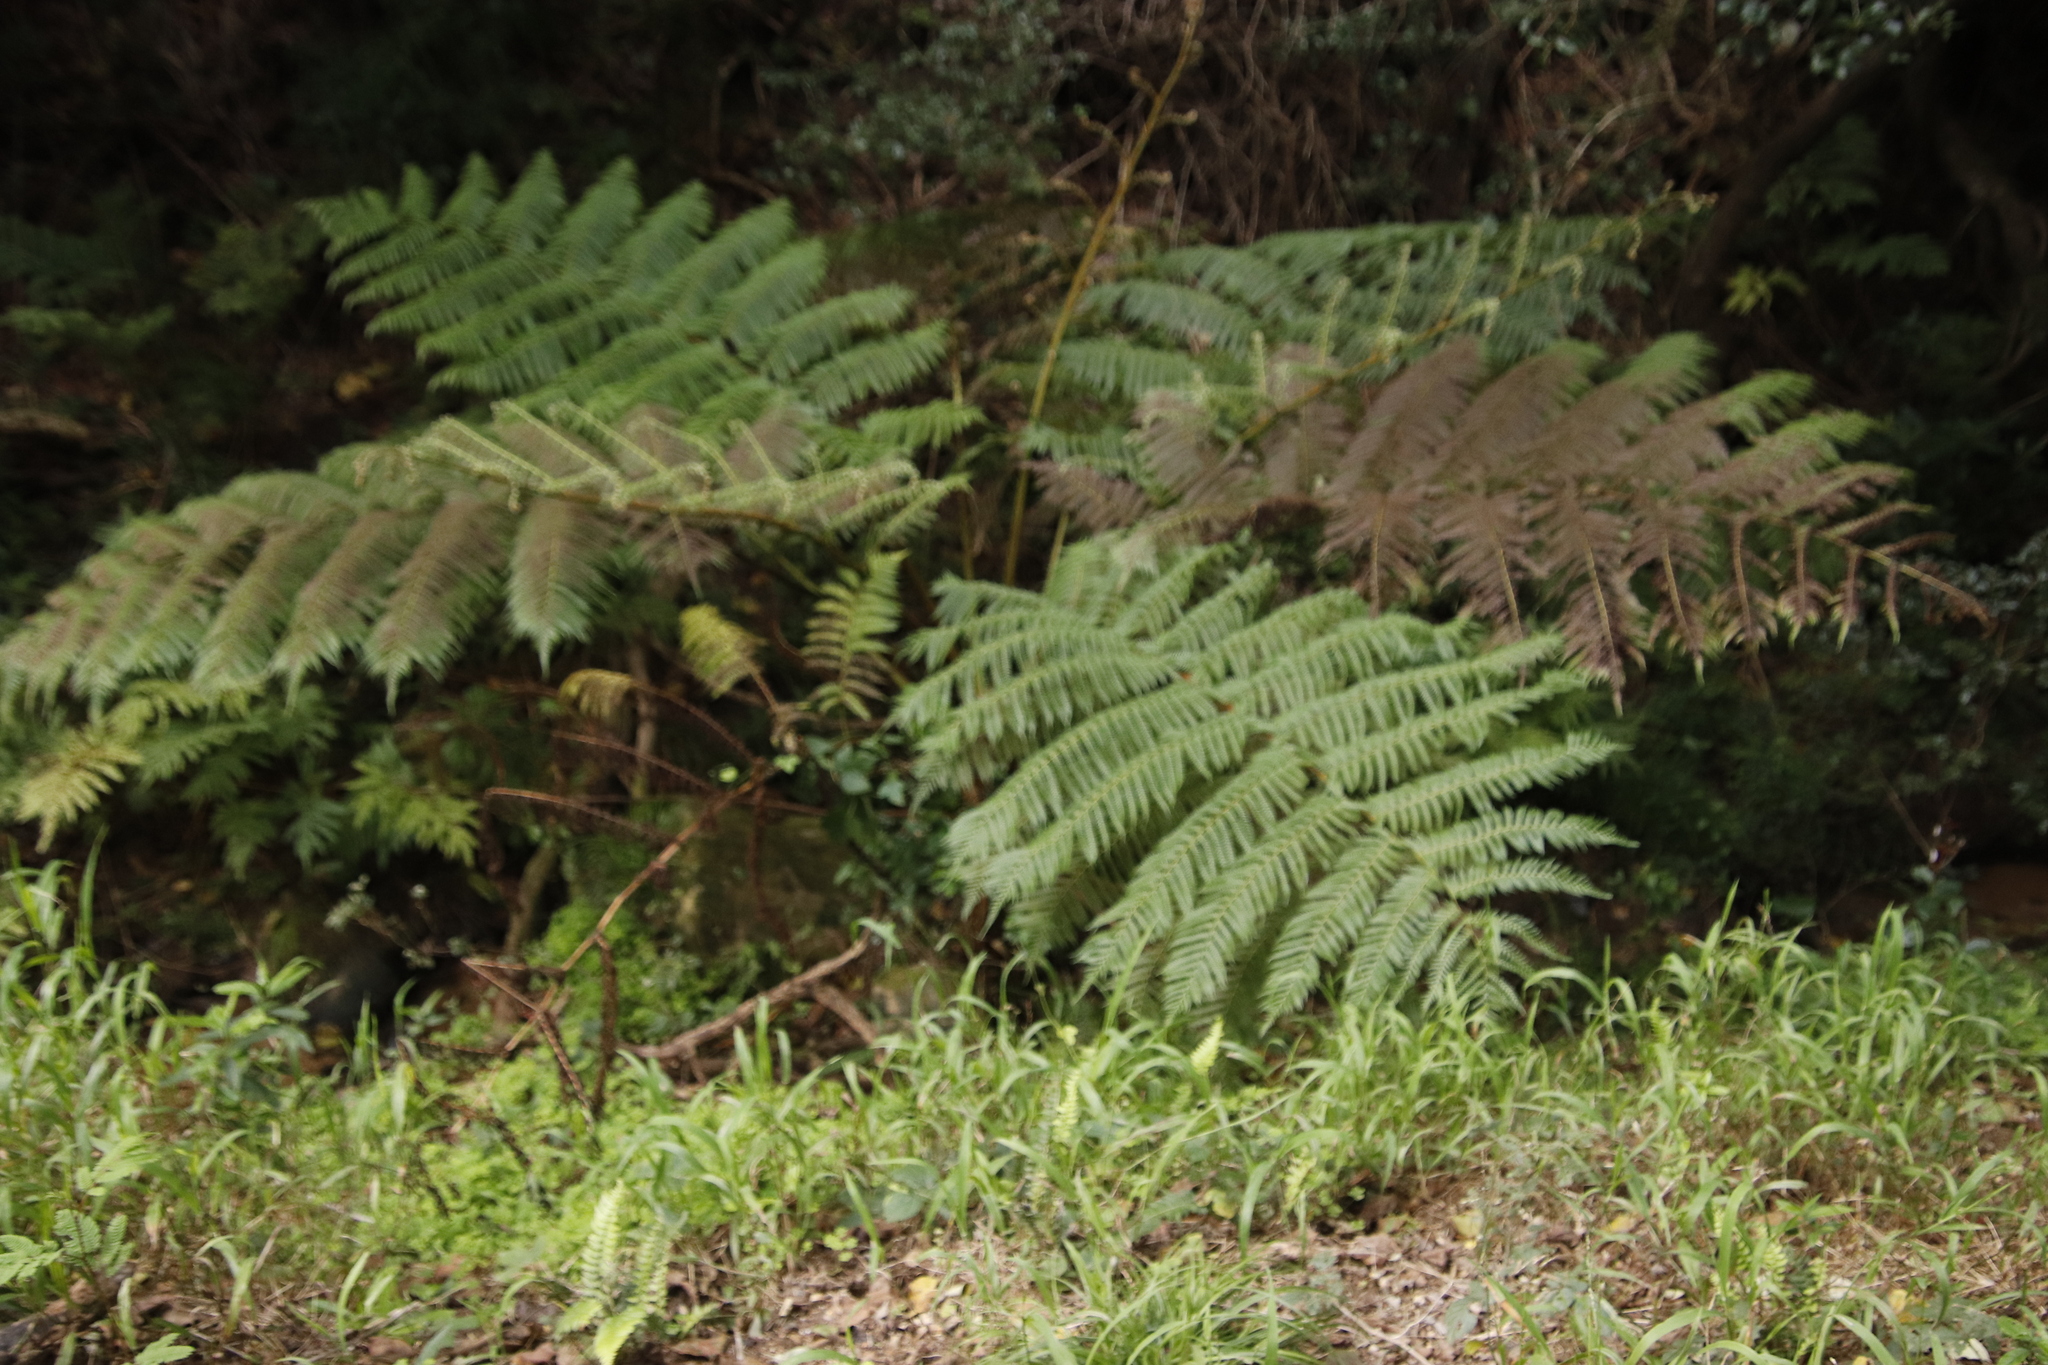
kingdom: Plantae
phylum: Tracheophyta
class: Polypodiopsida
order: Cyatheales
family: Cyatheaceae
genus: Sphaeropteris
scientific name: Sphaeropteris cooperi
